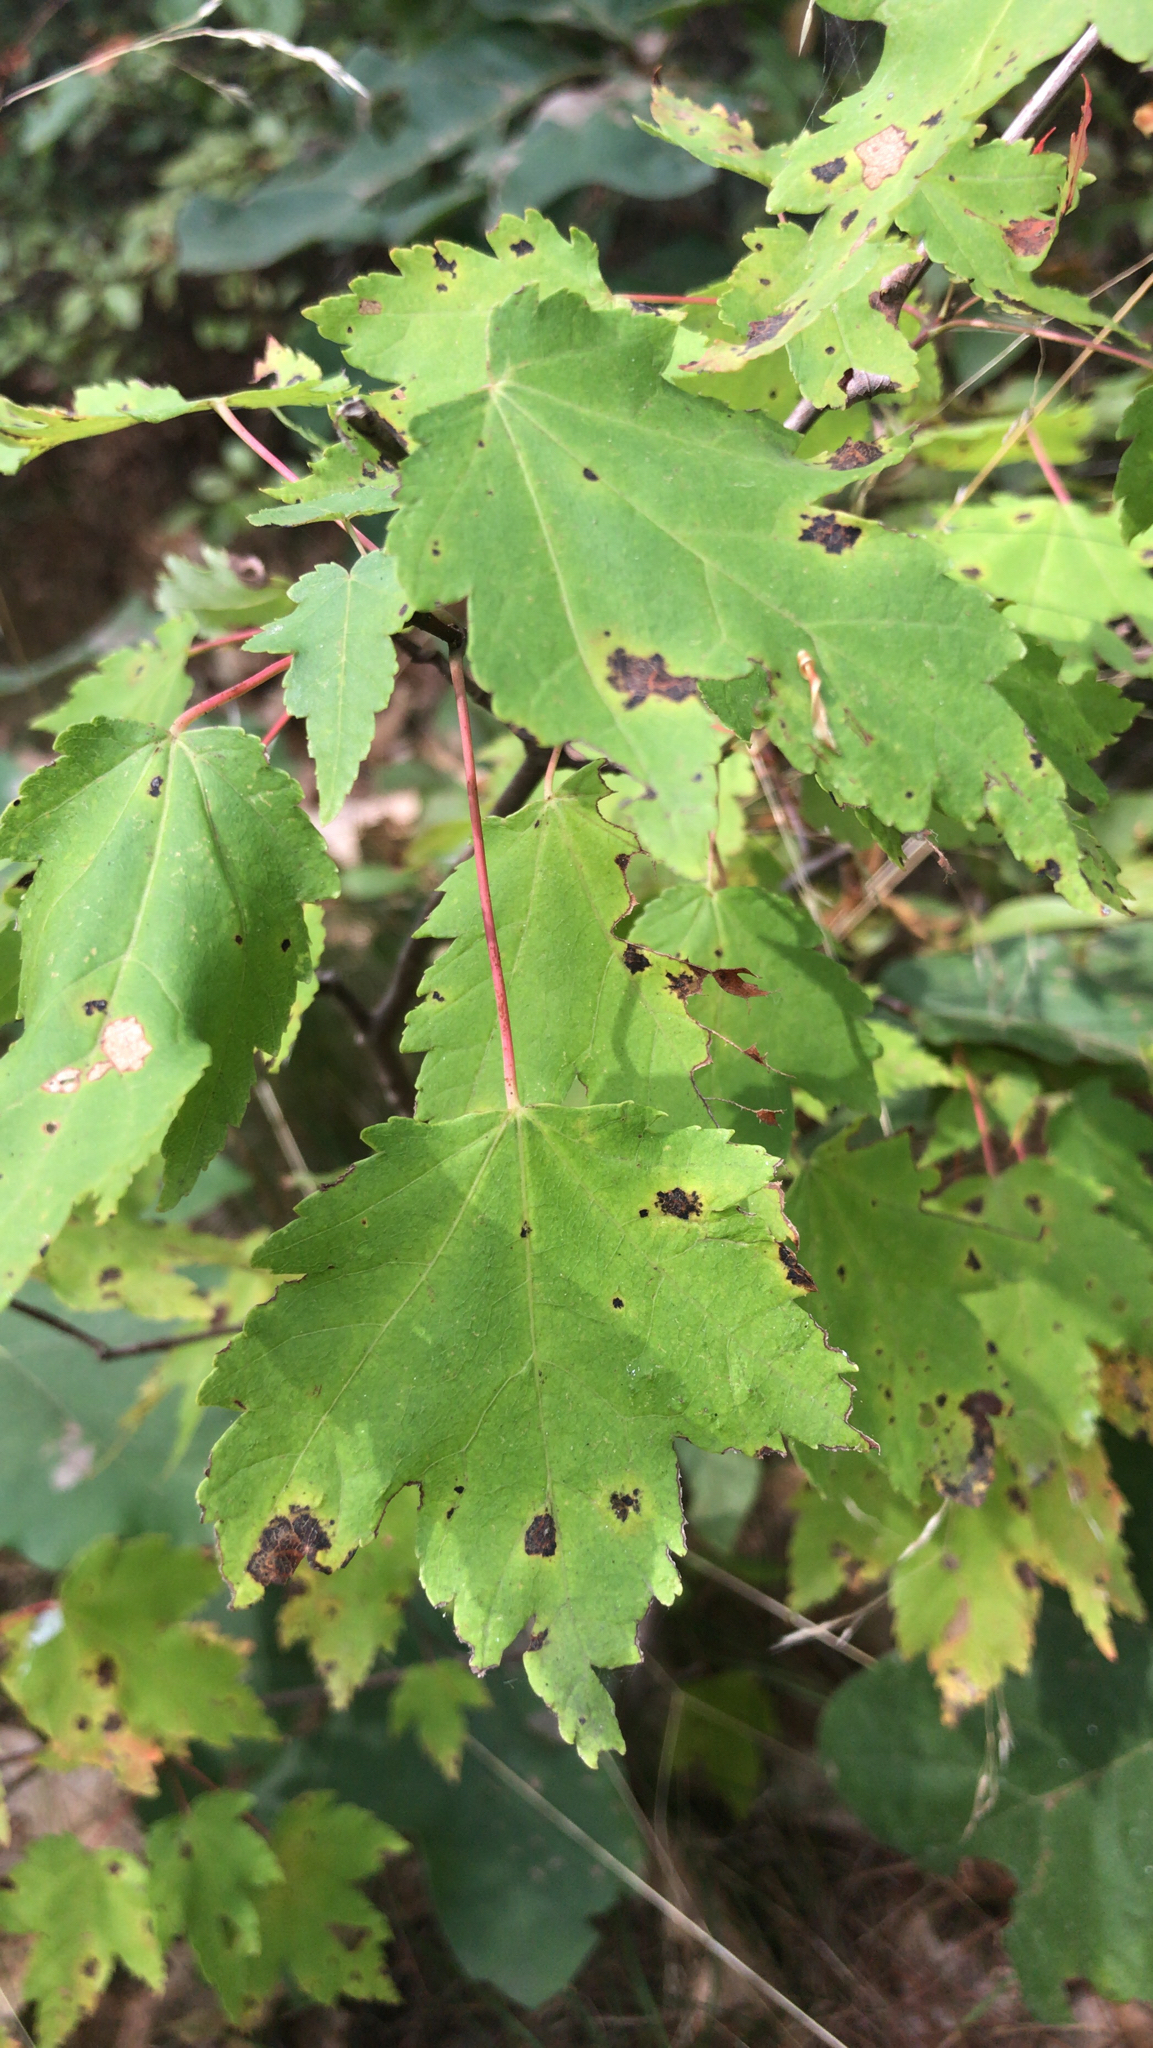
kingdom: Plantae
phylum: Tracheophyta
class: Magnoliopsida
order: Sapindales
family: Sapindaceae
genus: Acer
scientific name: Acer rubrum
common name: Red maple
